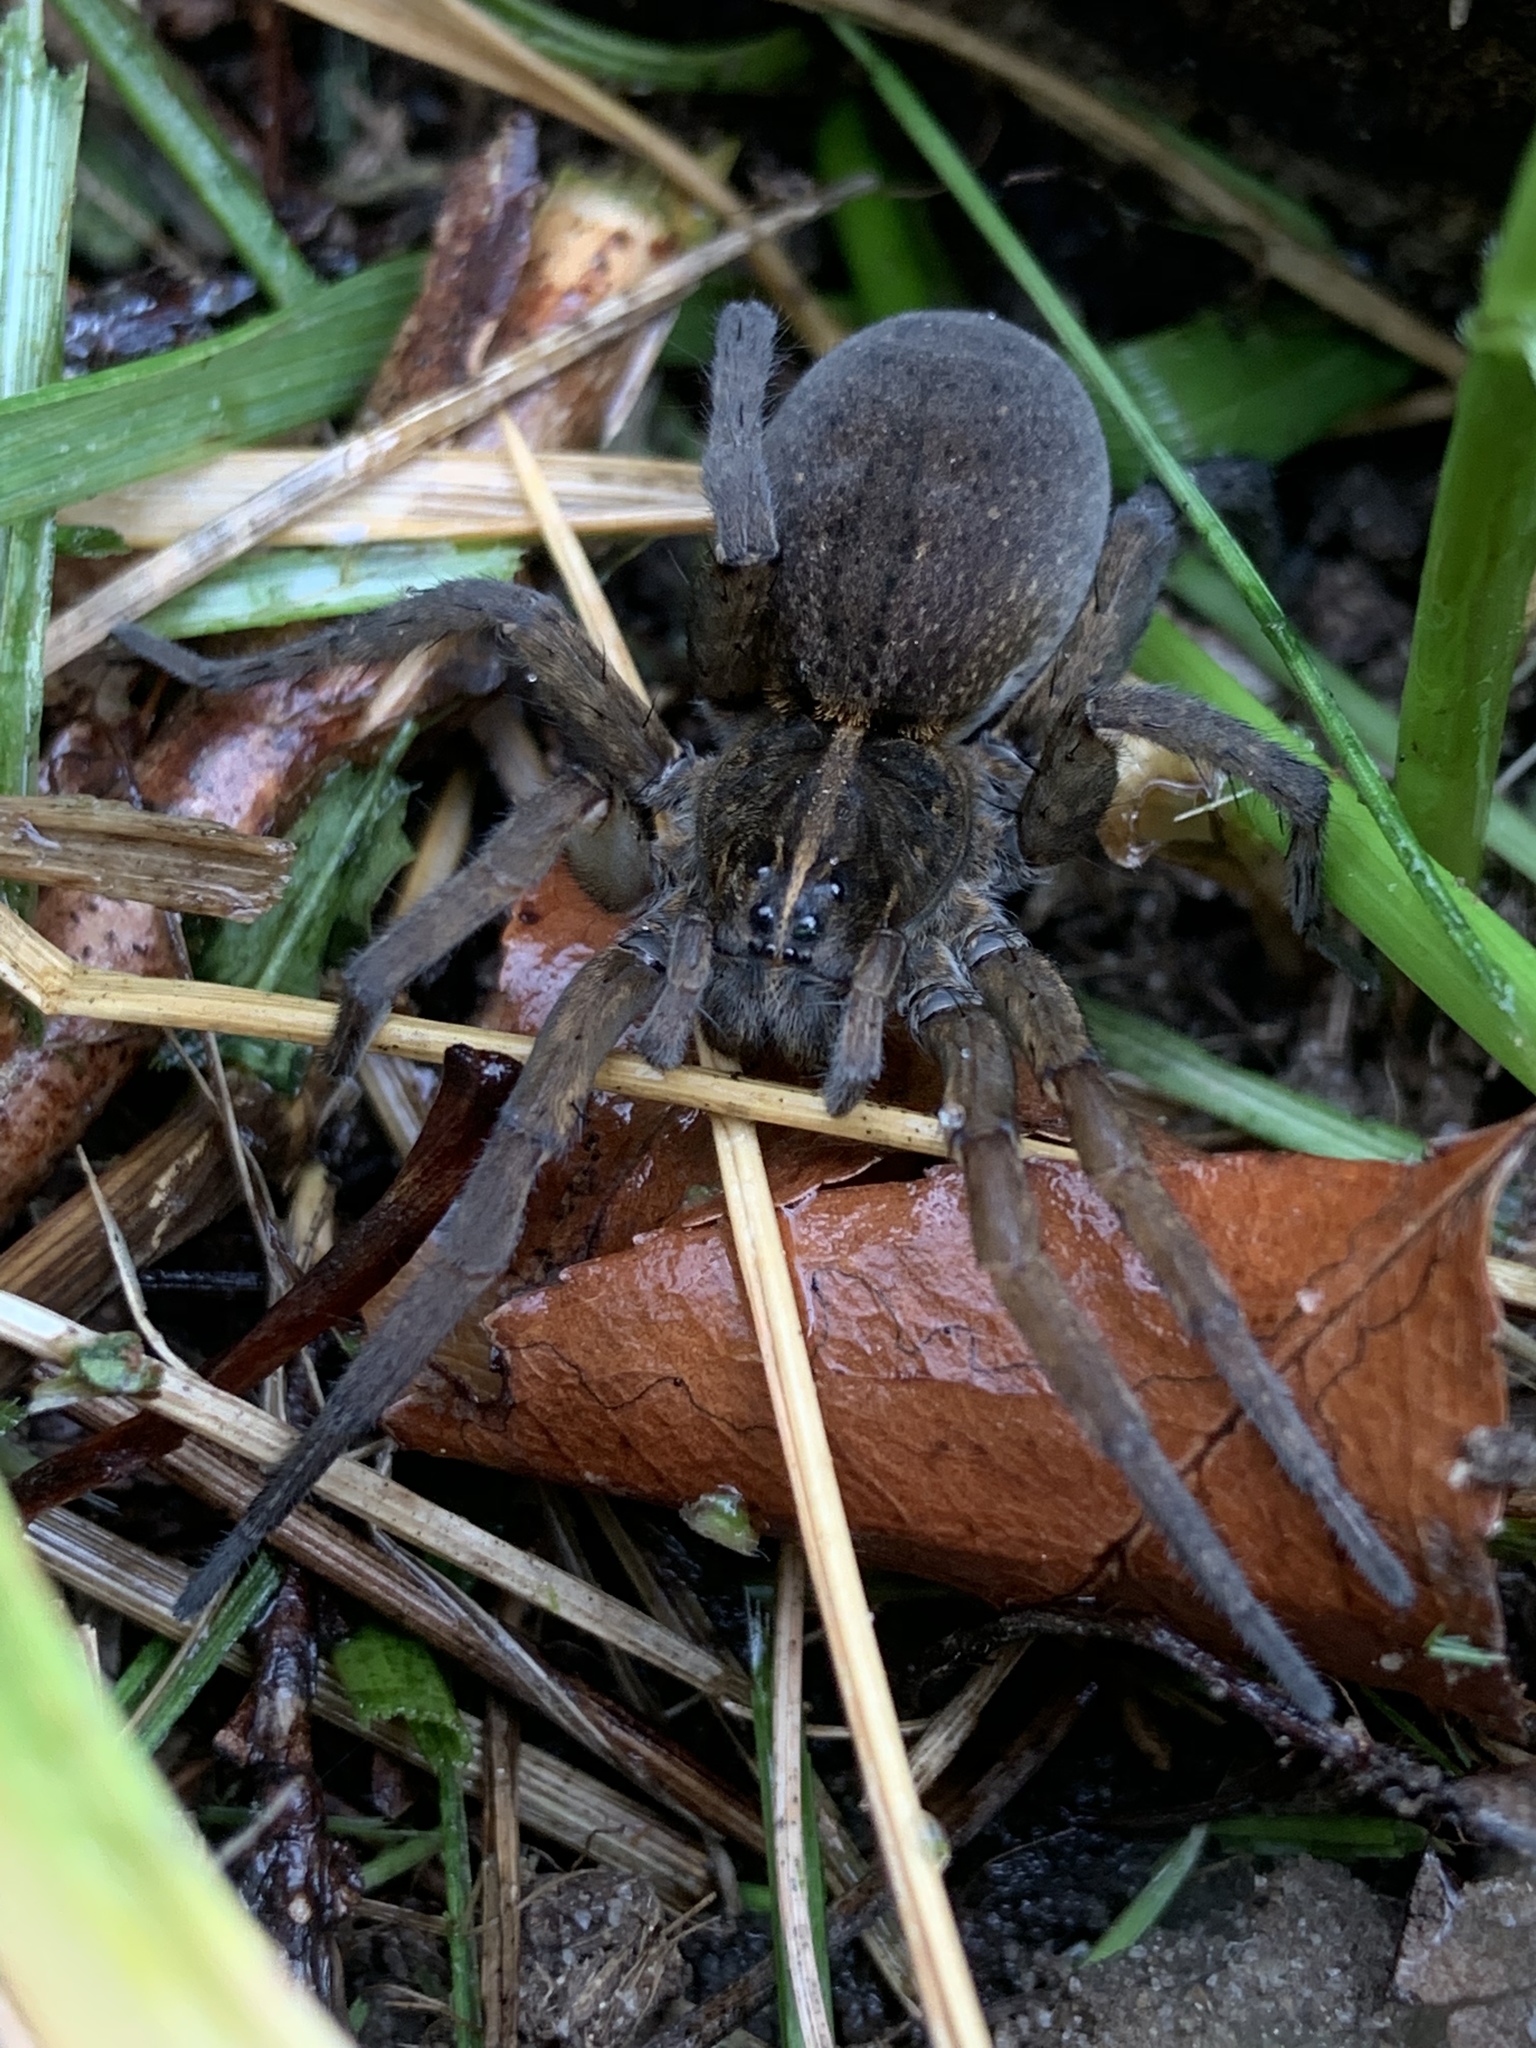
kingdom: Animalia
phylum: Arthropoda
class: Arachnida
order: Araneae
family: Lycosidae
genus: Tigrosa
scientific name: Tigrosa helluo
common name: Wetland giant wolf spider
